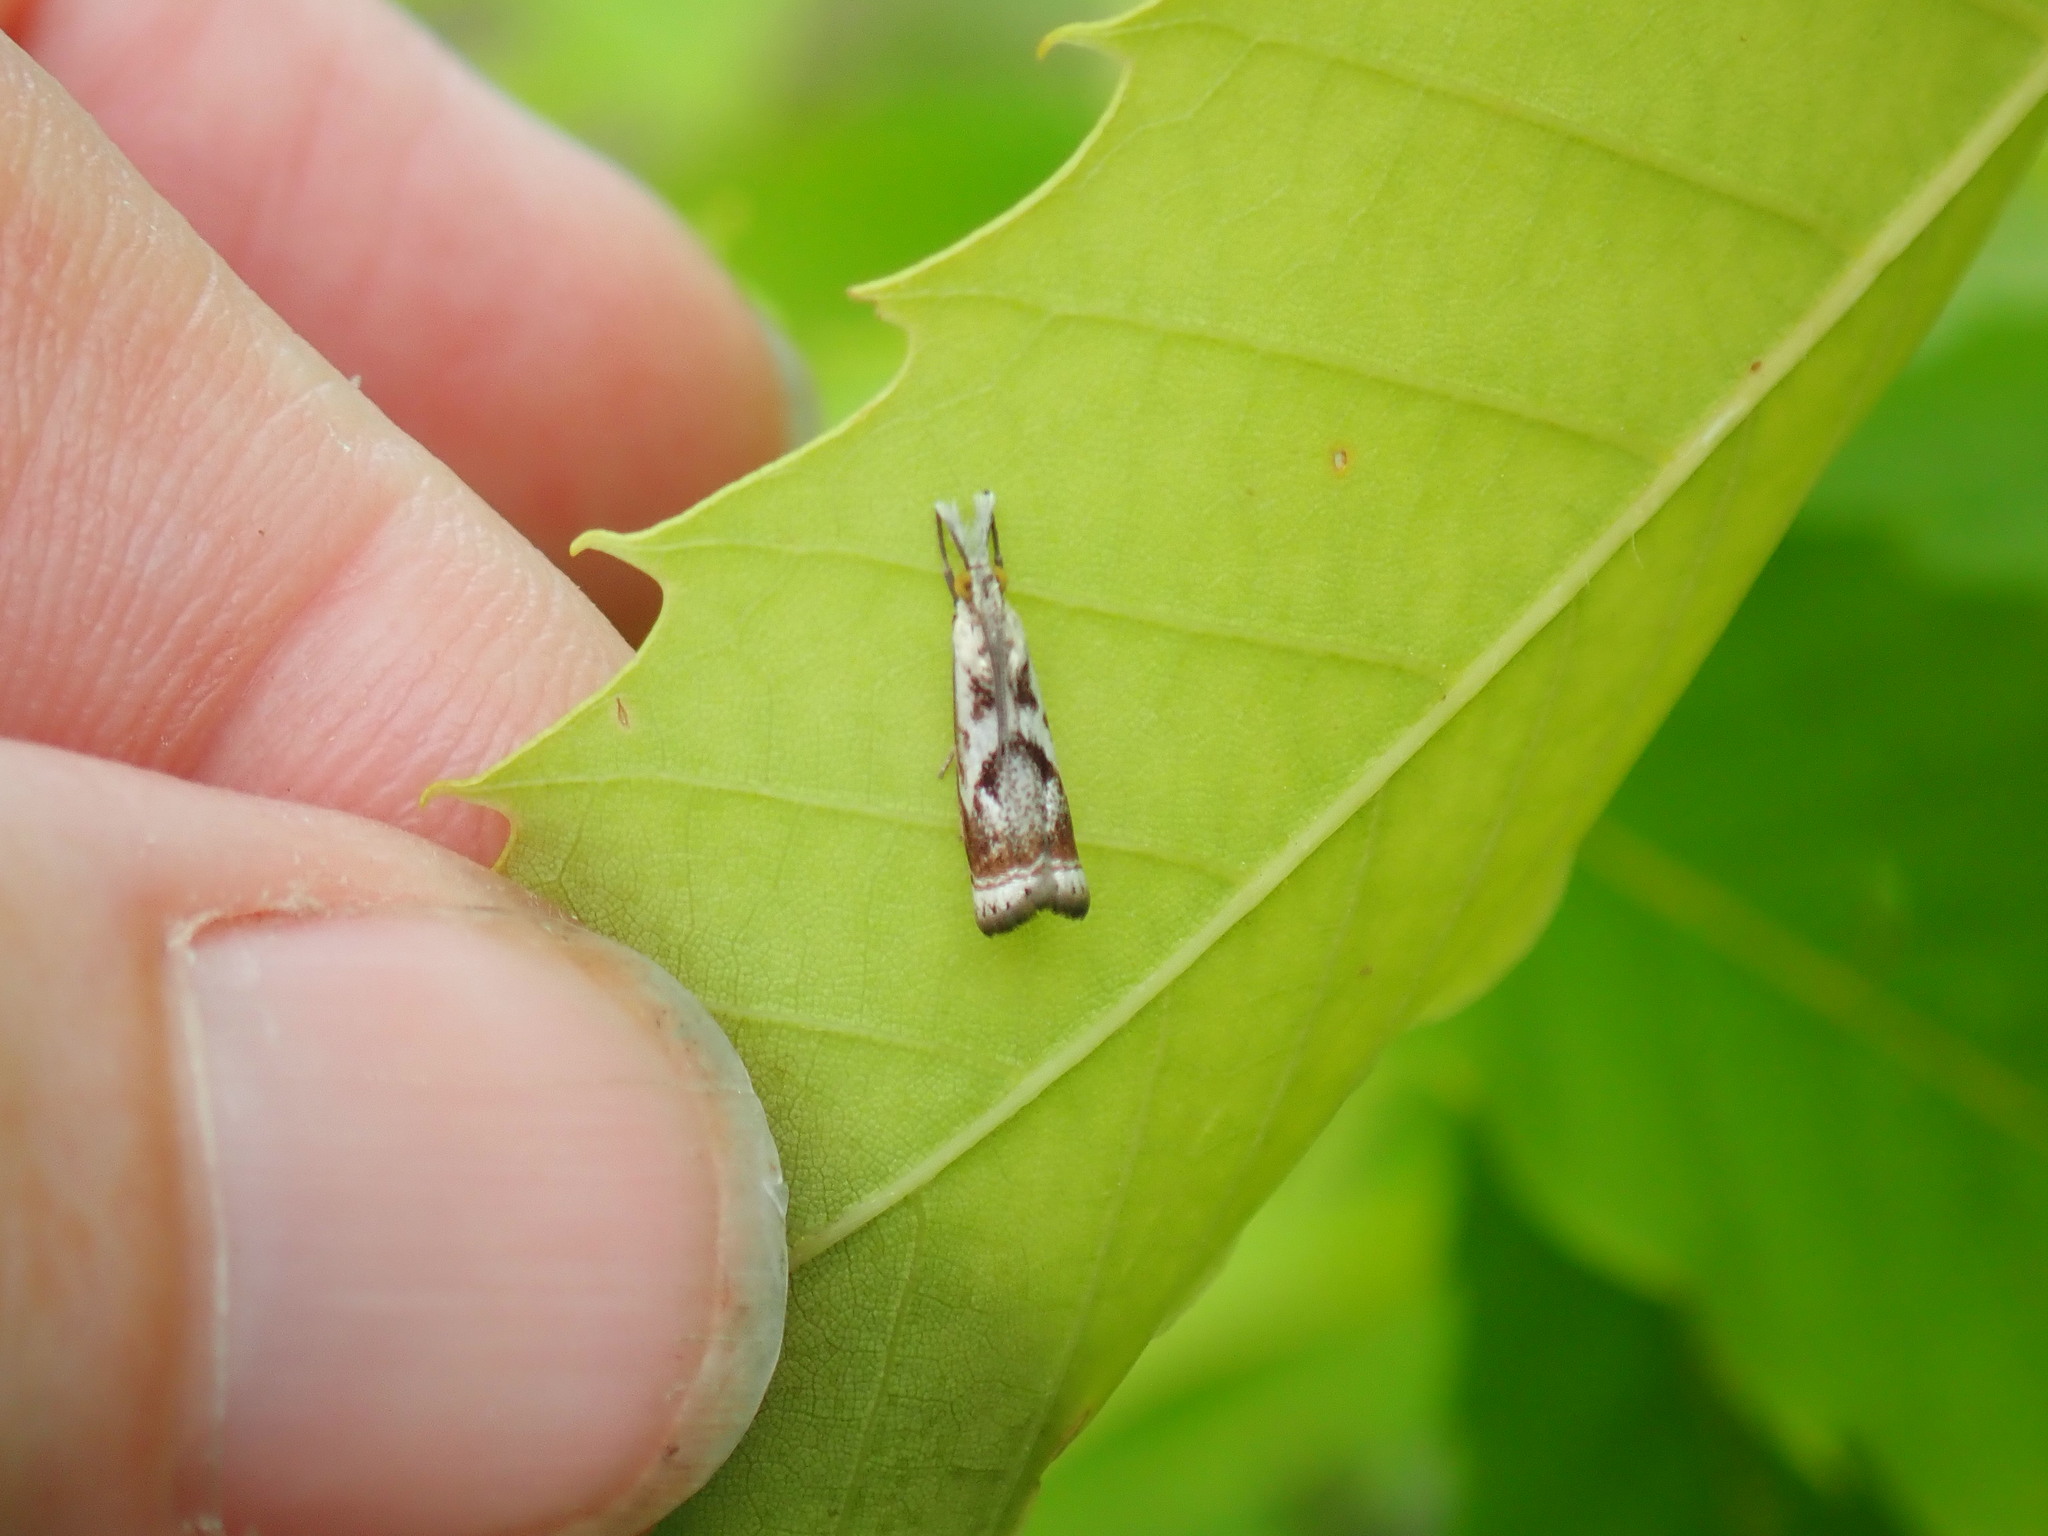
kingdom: Animalia
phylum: Arthropoda
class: Insecta
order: Lepidoptera
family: Crambidae
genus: Microcrambus
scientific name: Microcrambus elegans
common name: Elegant grass-veneer
